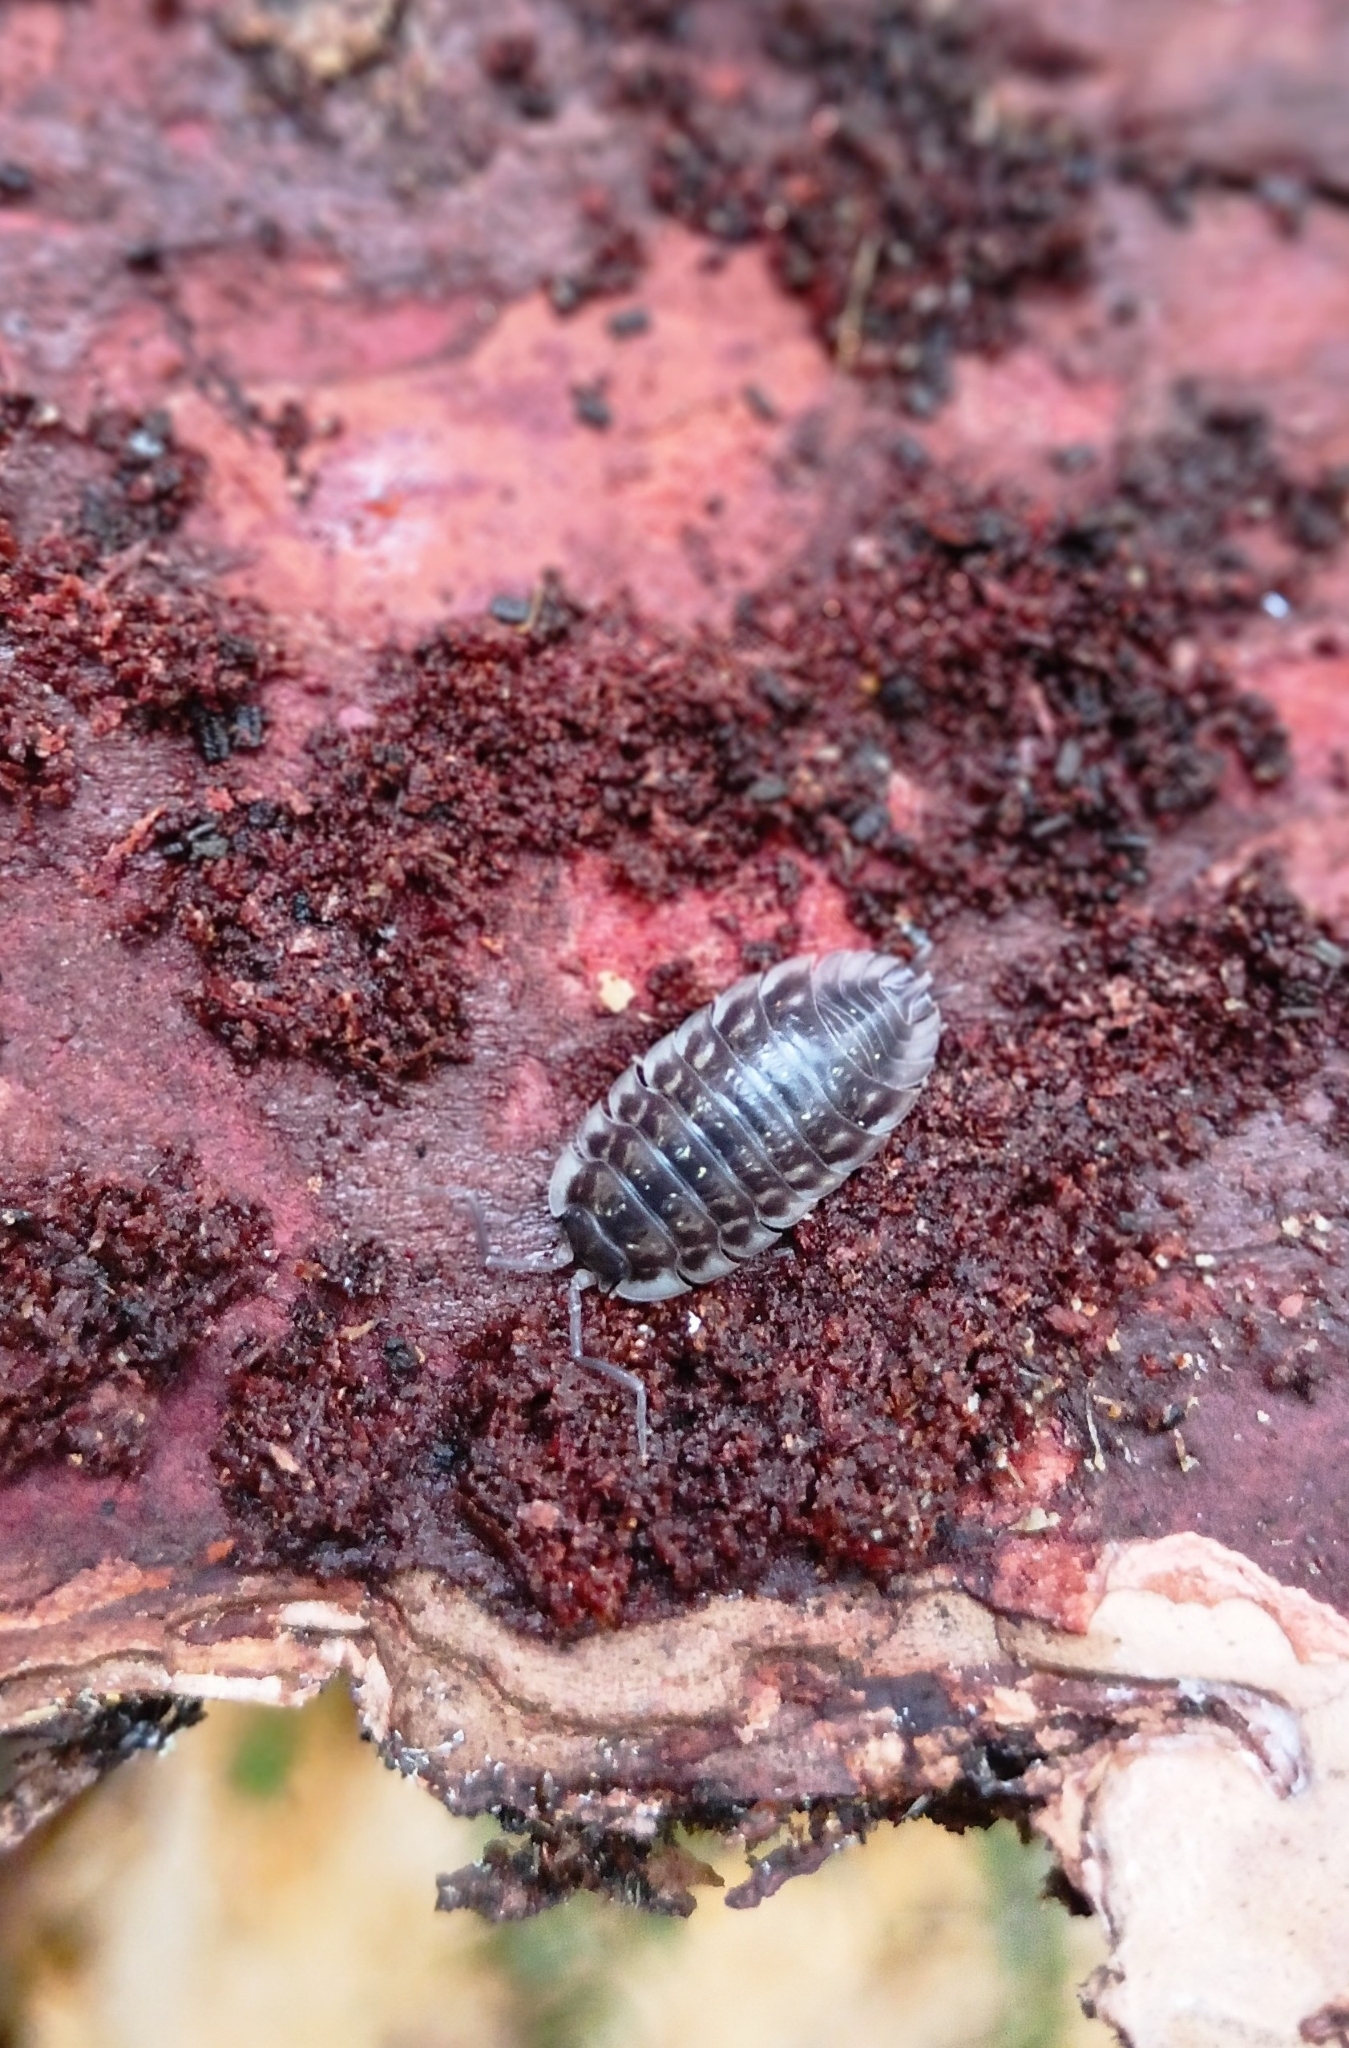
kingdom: Animalia
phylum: Arthropoda
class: Malacostraca
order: Isopoda
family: Oniscidae
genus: Oniscus
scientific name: Oniscus asellus
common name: Common shiny woodlouse
